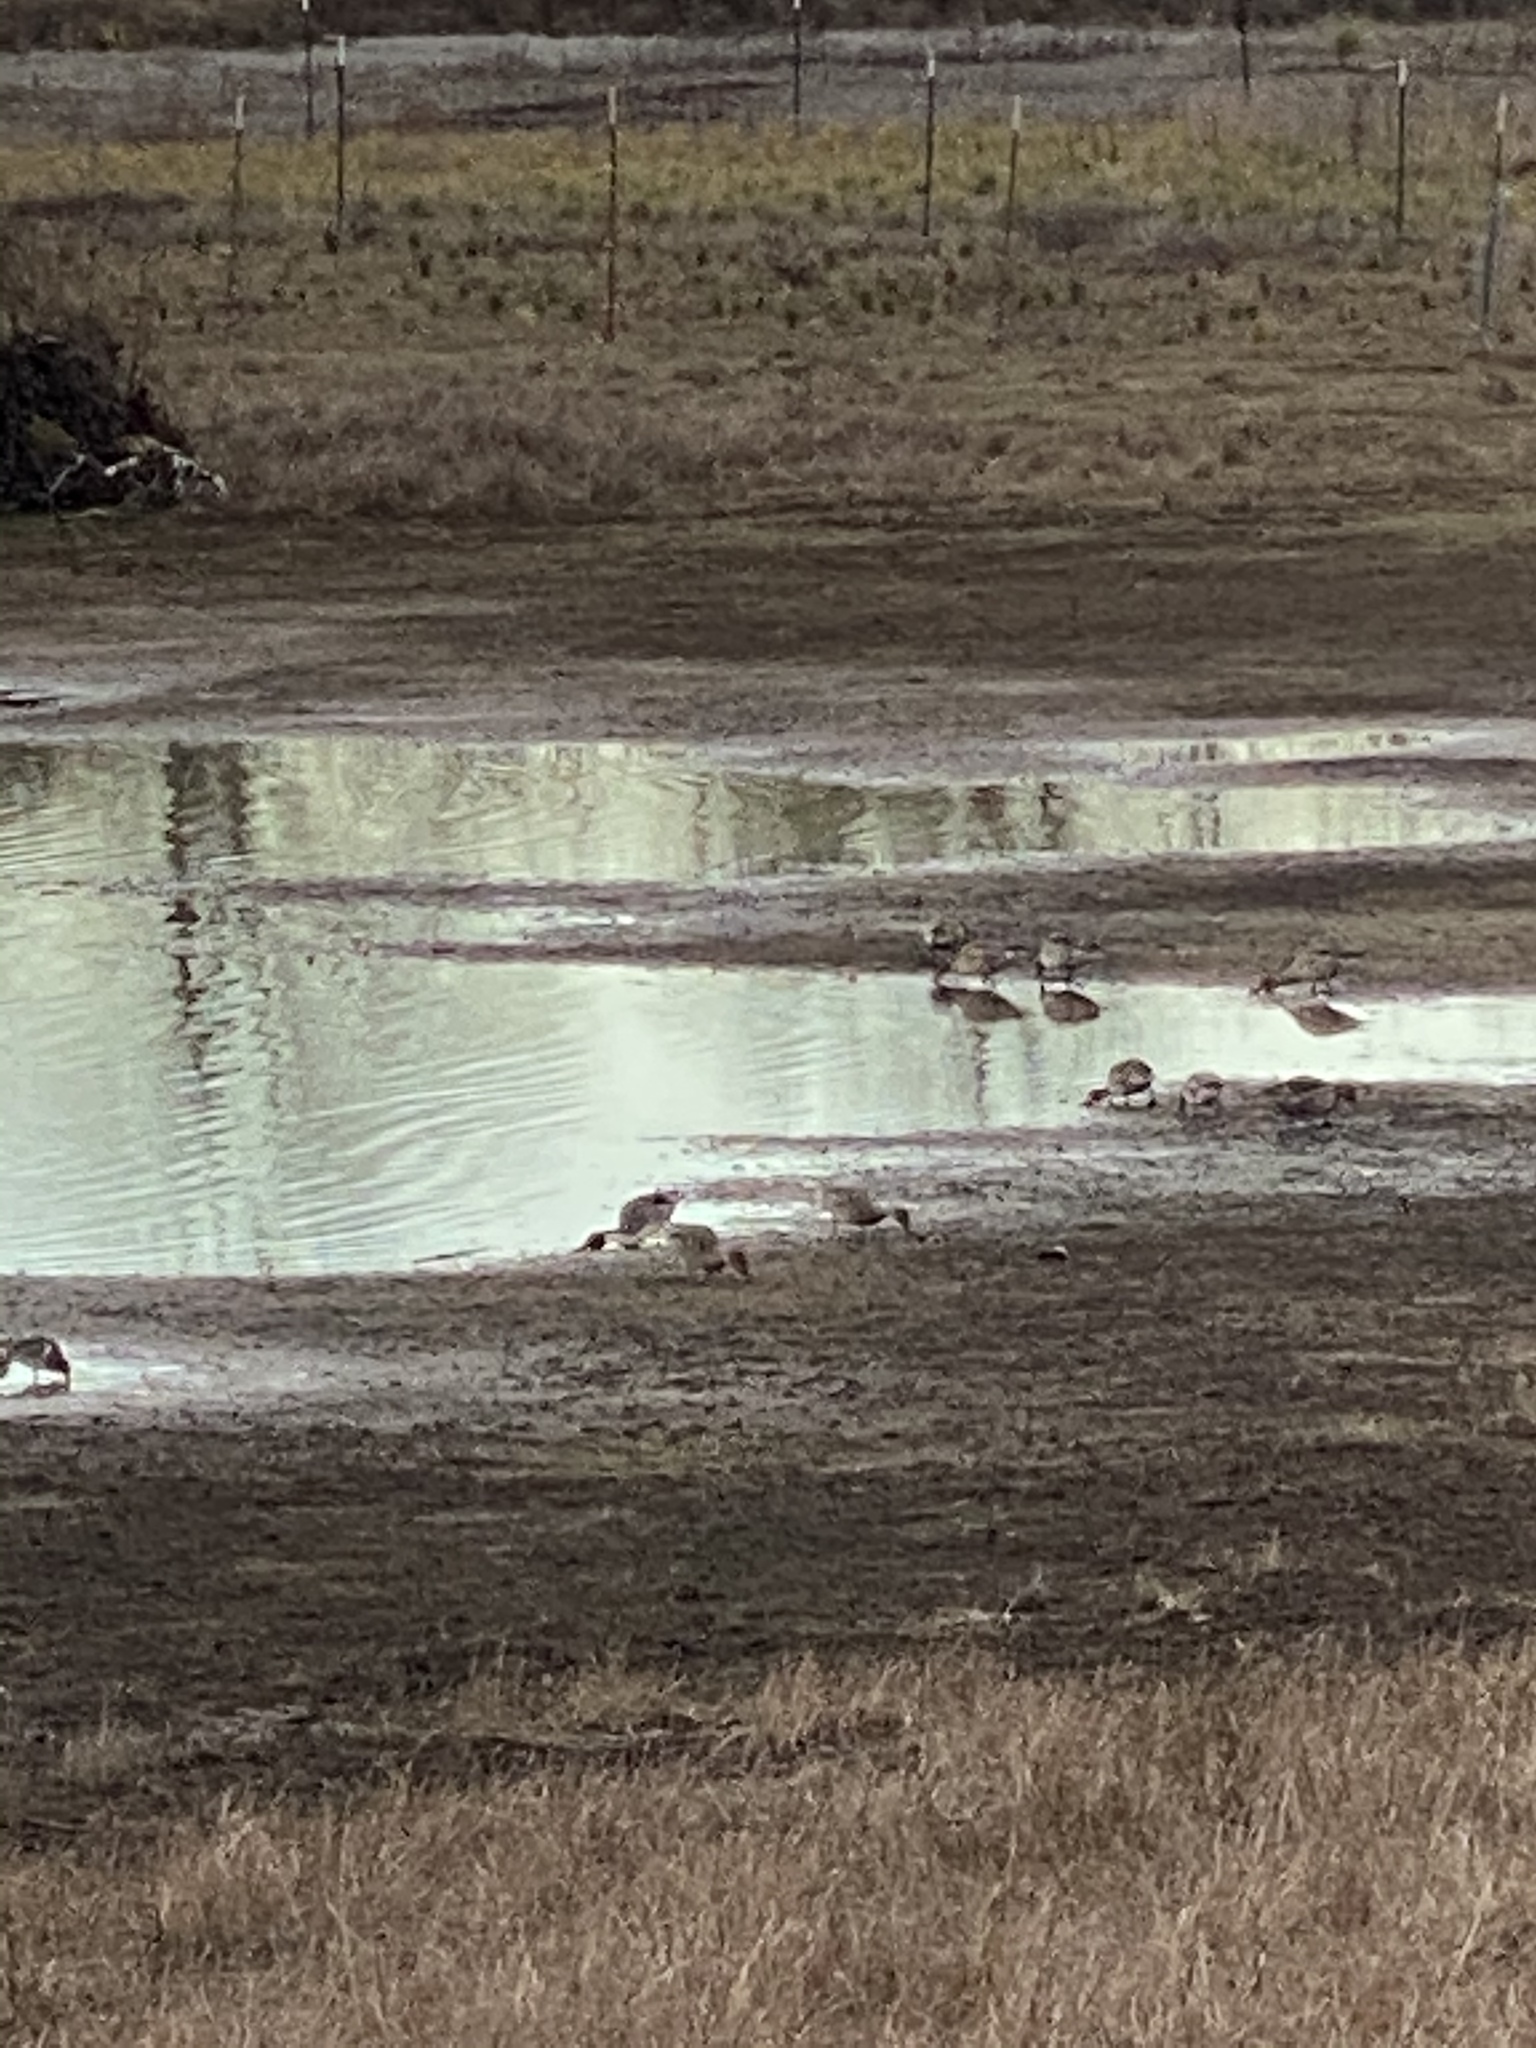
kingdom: Animalia
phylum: Chordata
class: Aves
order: Anseriformes
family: Anatidae
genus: Anas
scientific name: Anas acuta
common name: Northern pintail
